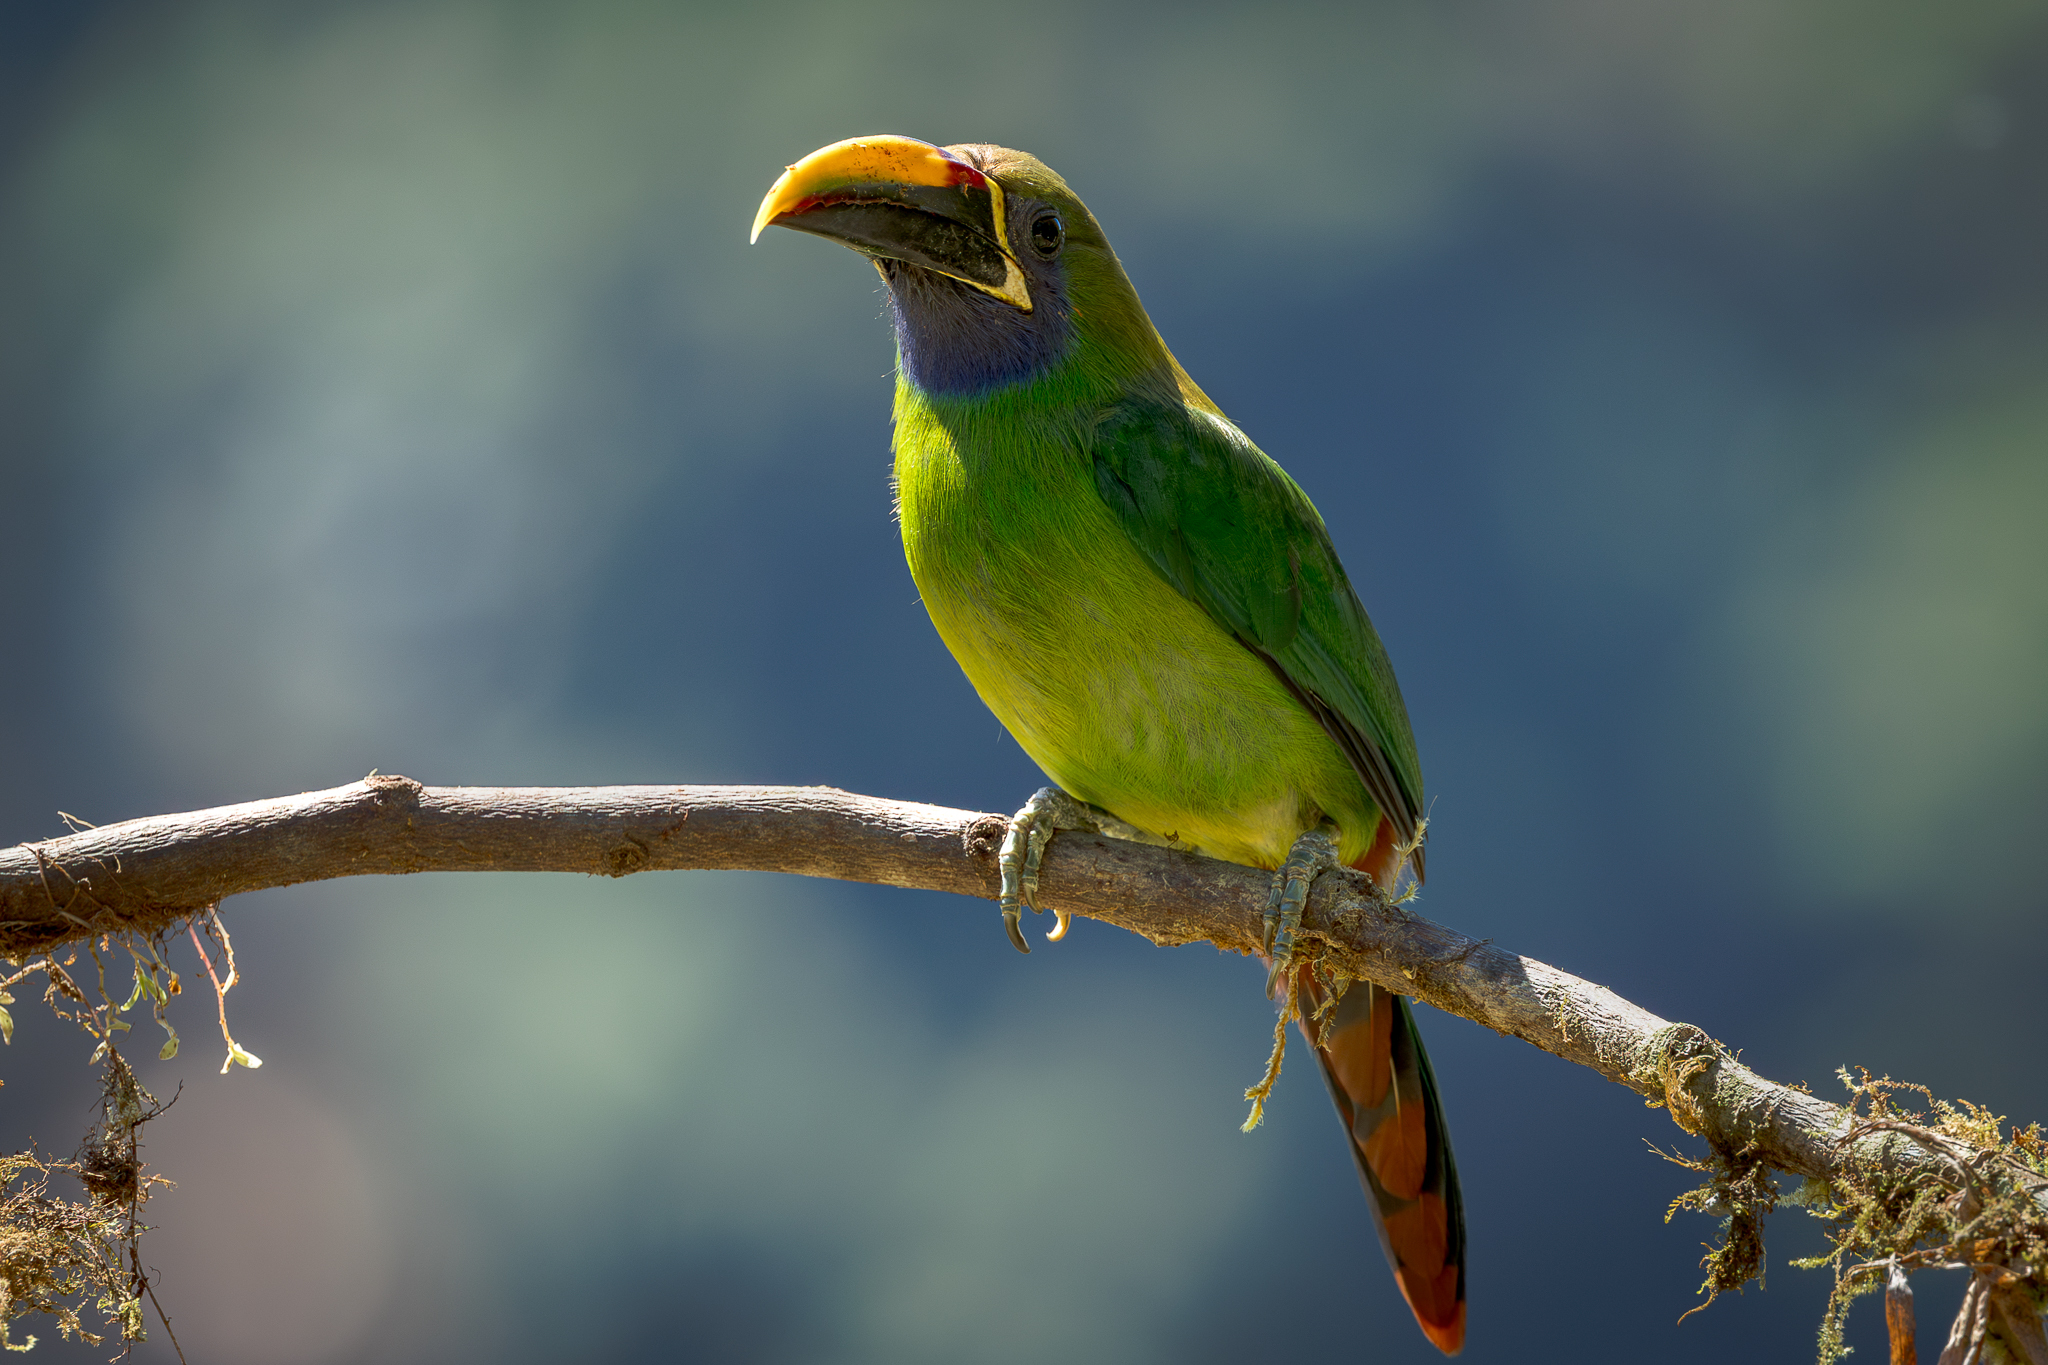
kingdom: Animalia
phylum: Chordata
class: Aves
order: Piciformes
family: Ramphastidae
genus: Aulacorhynchus
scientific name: Aulacorhynchus prasinus
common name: Emerald toucanet
